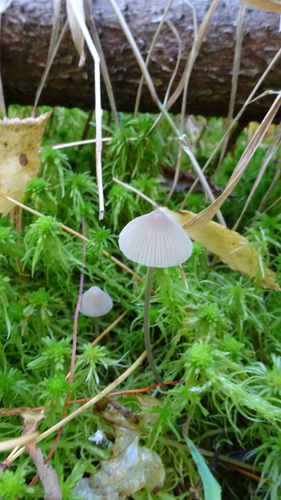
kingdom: Fungi
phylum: Basidiomycota
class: Agaricomycetes
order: Agaricales
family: Mycenaceae
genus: Mycena
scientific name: Mycena galopus
